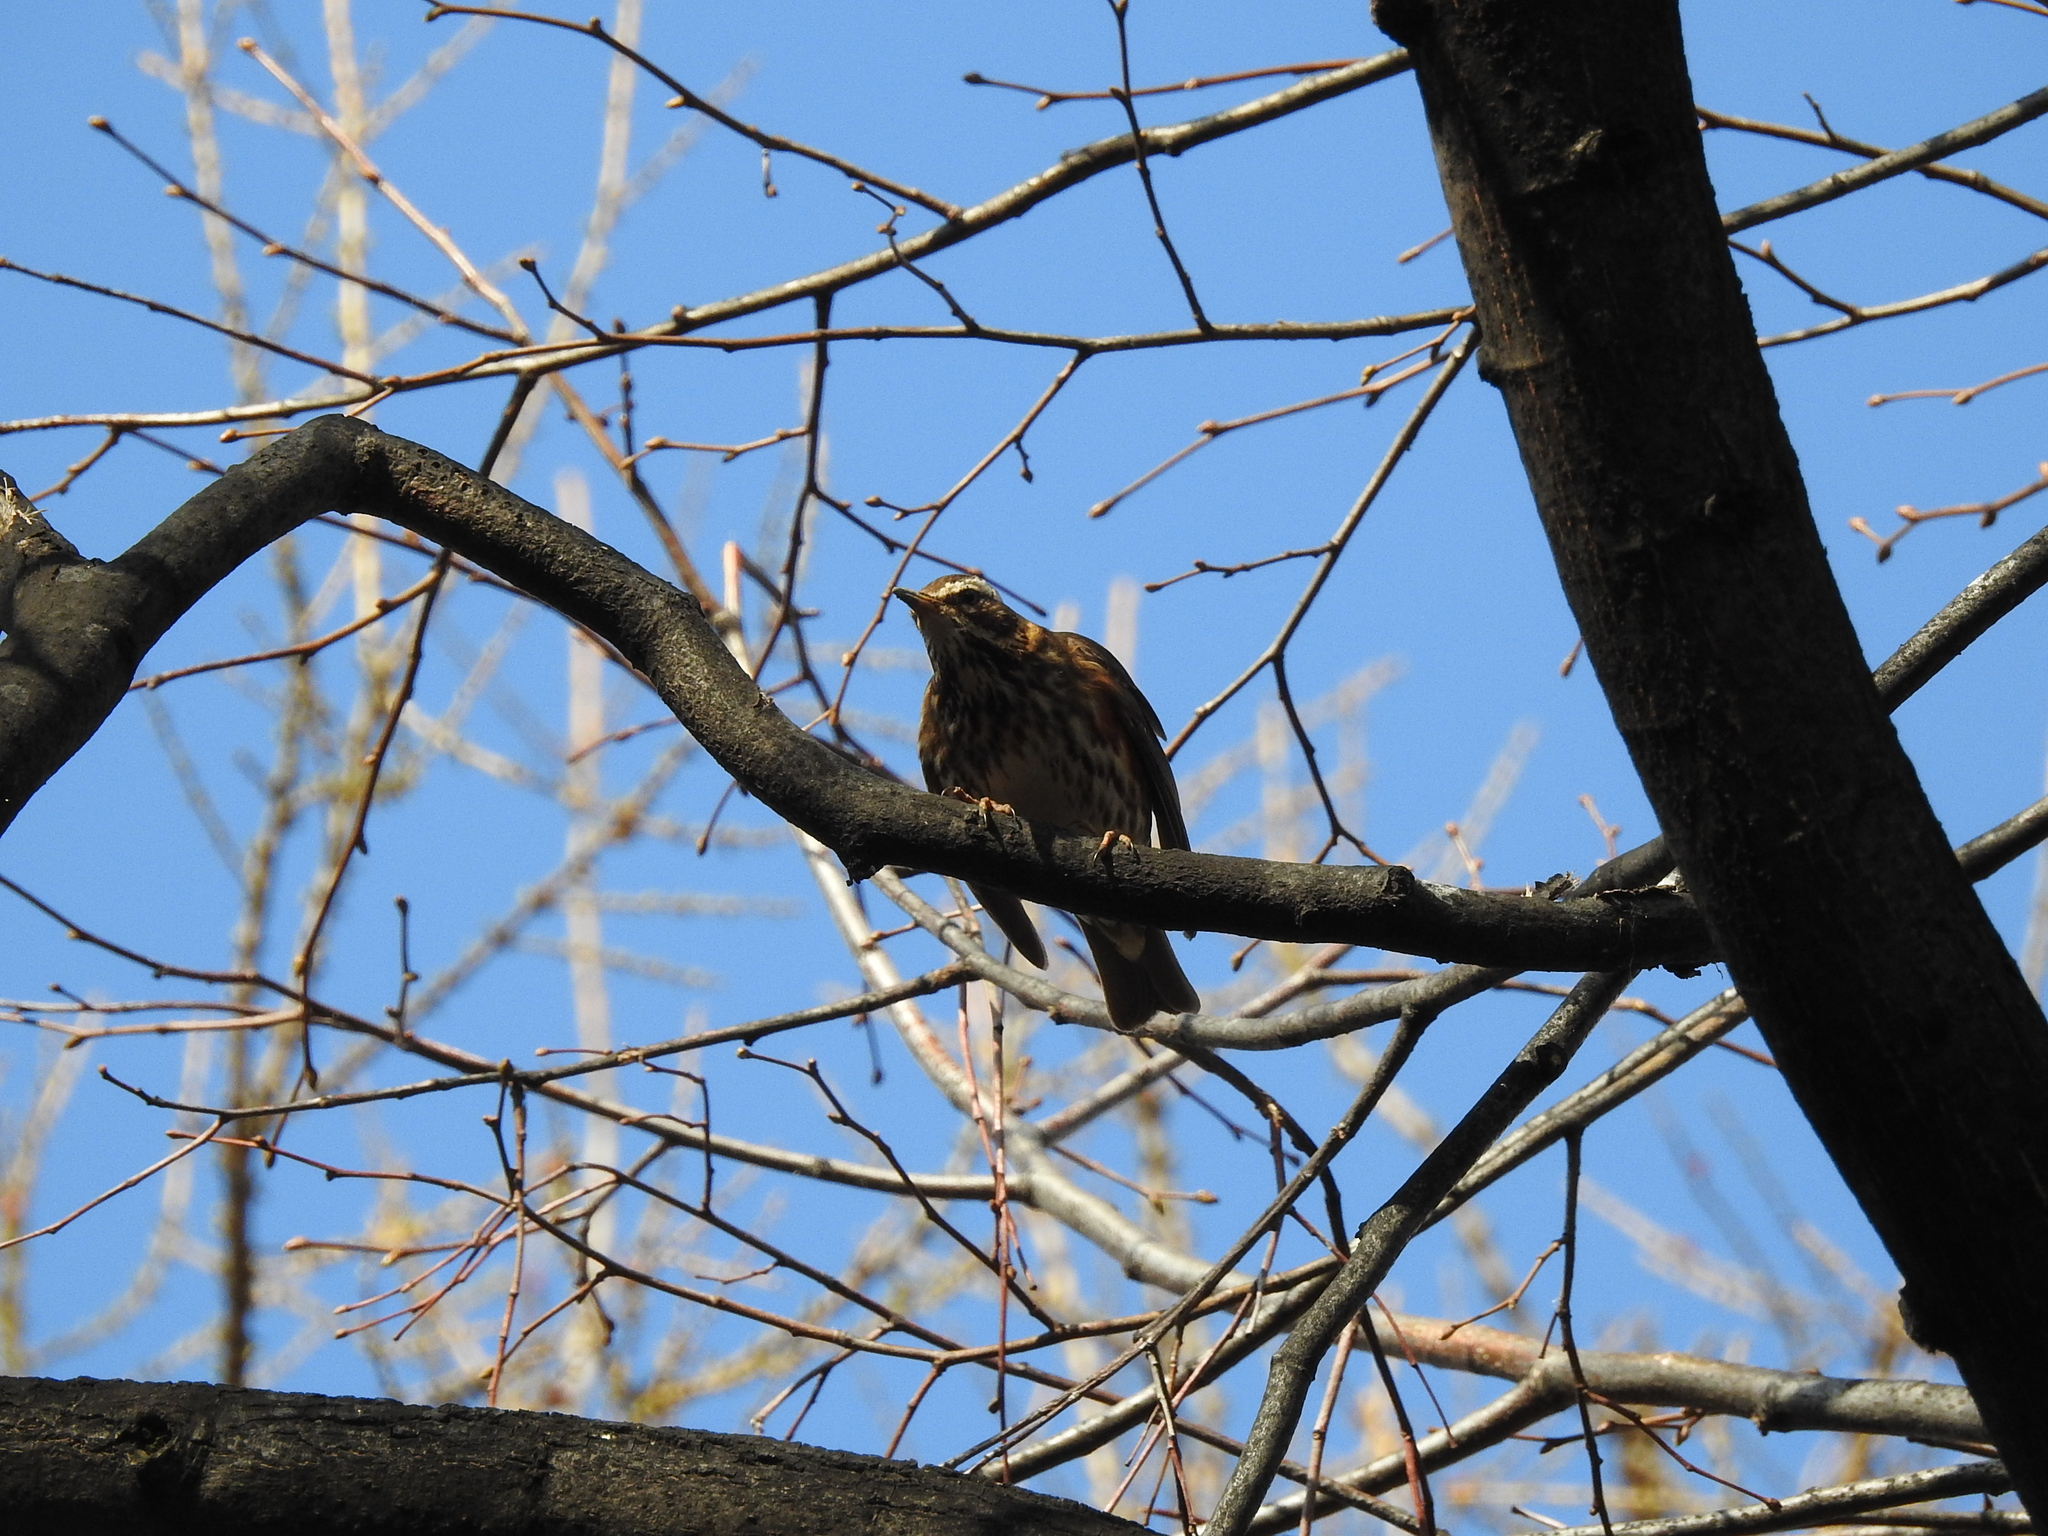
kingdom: Animalia
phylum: Chordata
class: Aves
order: Passeriformes
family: Turdidae
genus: Turdus
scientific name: Turdus iliacus
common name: Redwing
